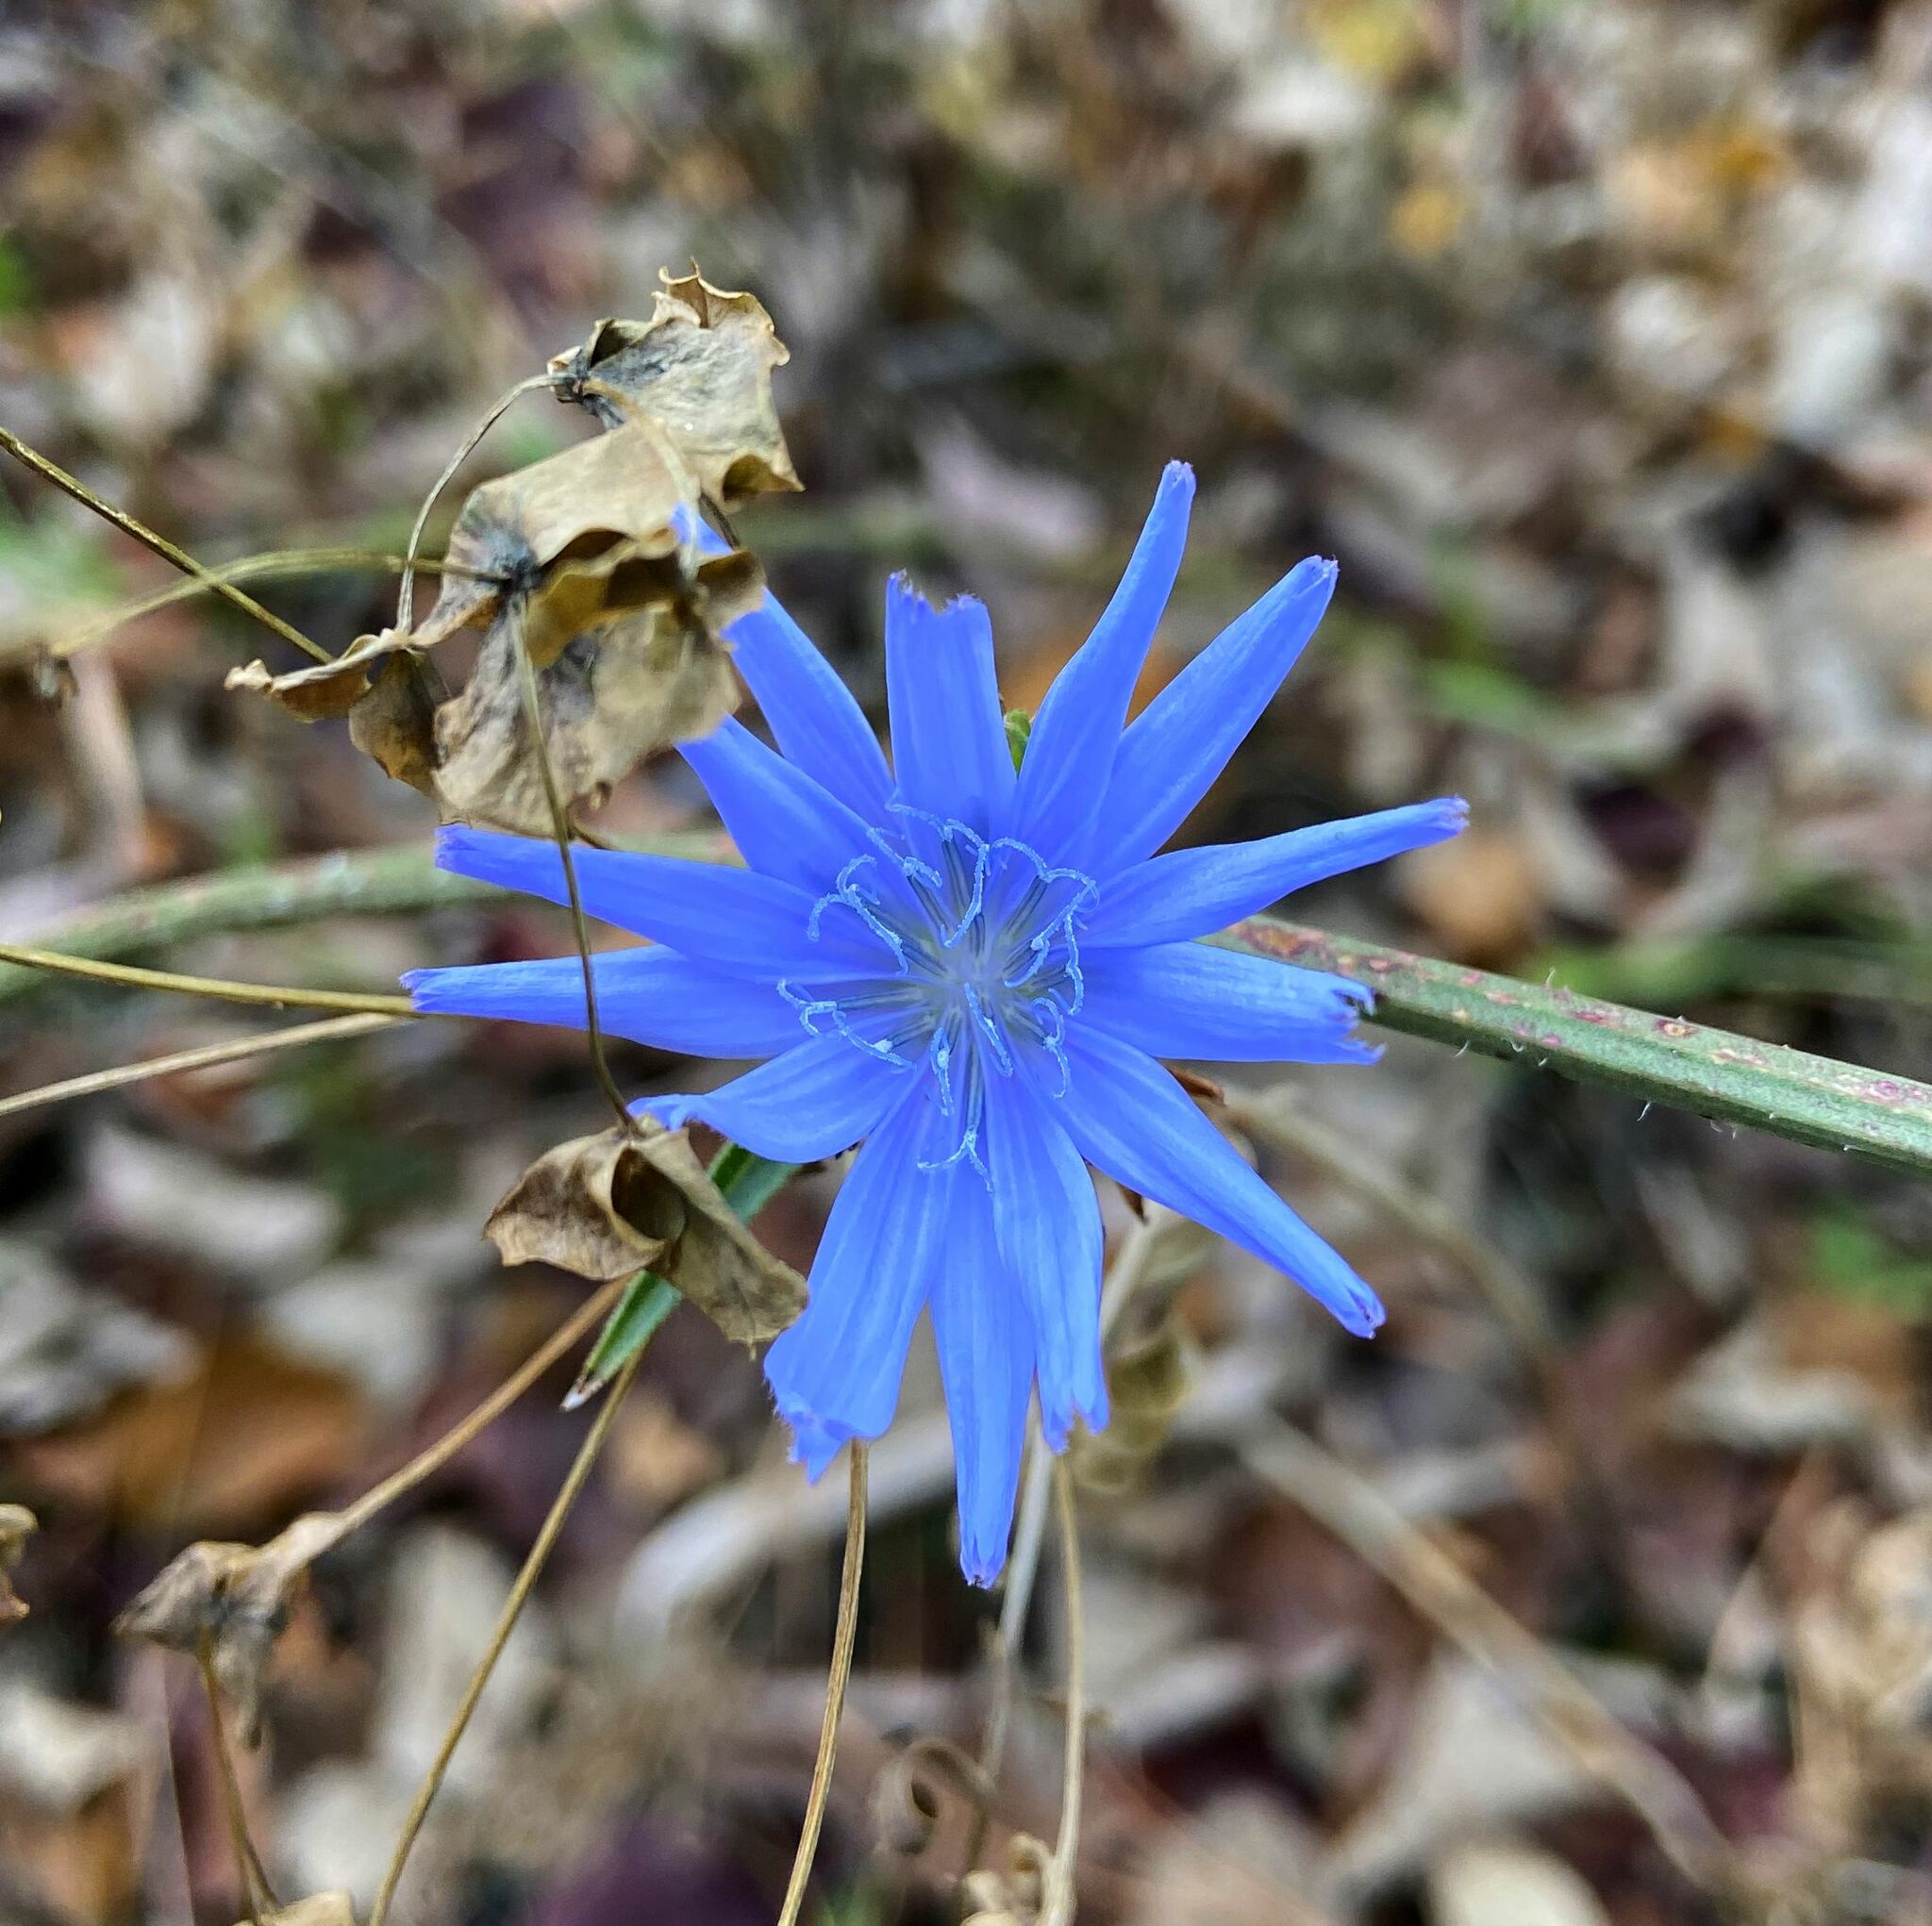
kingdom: Plantae
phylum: Tracheophyta
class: Magnoliopsida
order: Asterales
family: Asteraceae
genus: Cichorium
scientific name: Cichorium intybus
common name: Chicory
